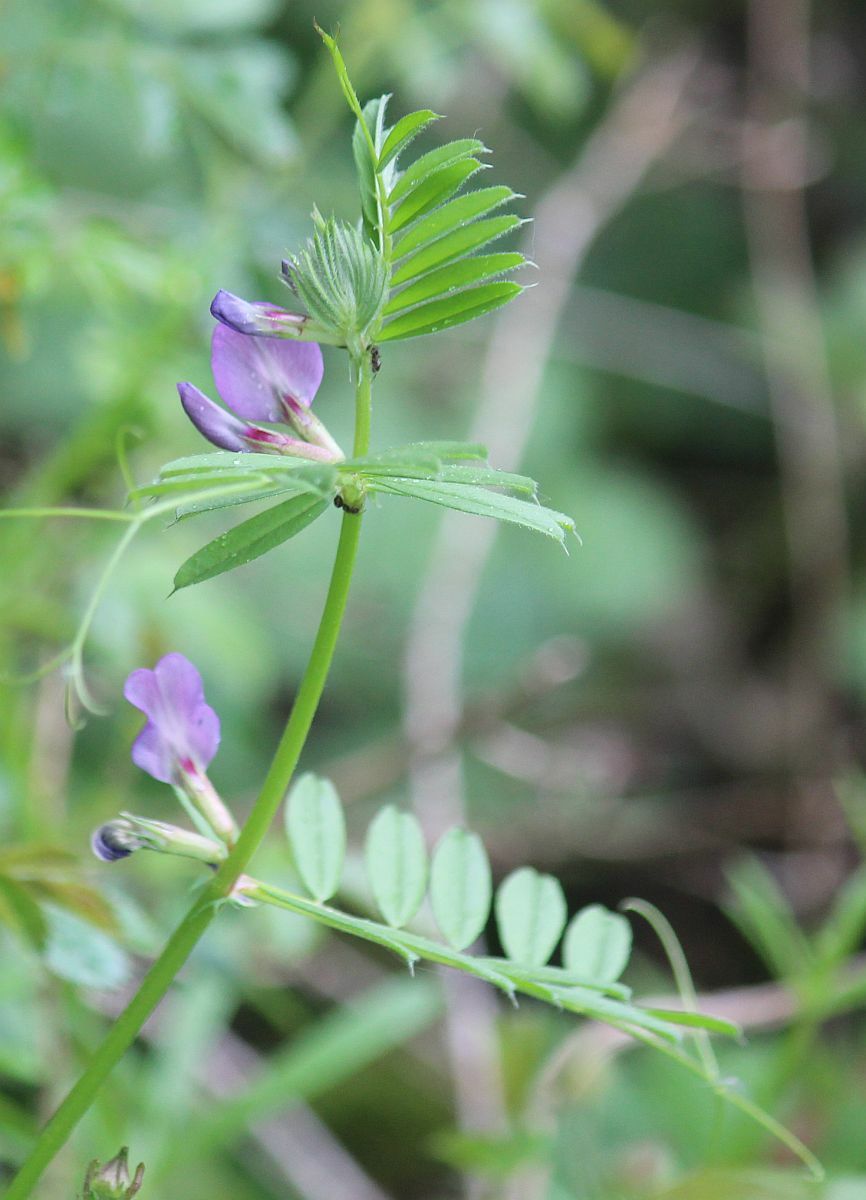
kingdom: Plantae
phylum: Tracheophyta
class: Magnoliopsida
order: Fabales
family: Fabaceae
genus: Vicia
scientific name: Vicia sativa
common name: Garden vetch
